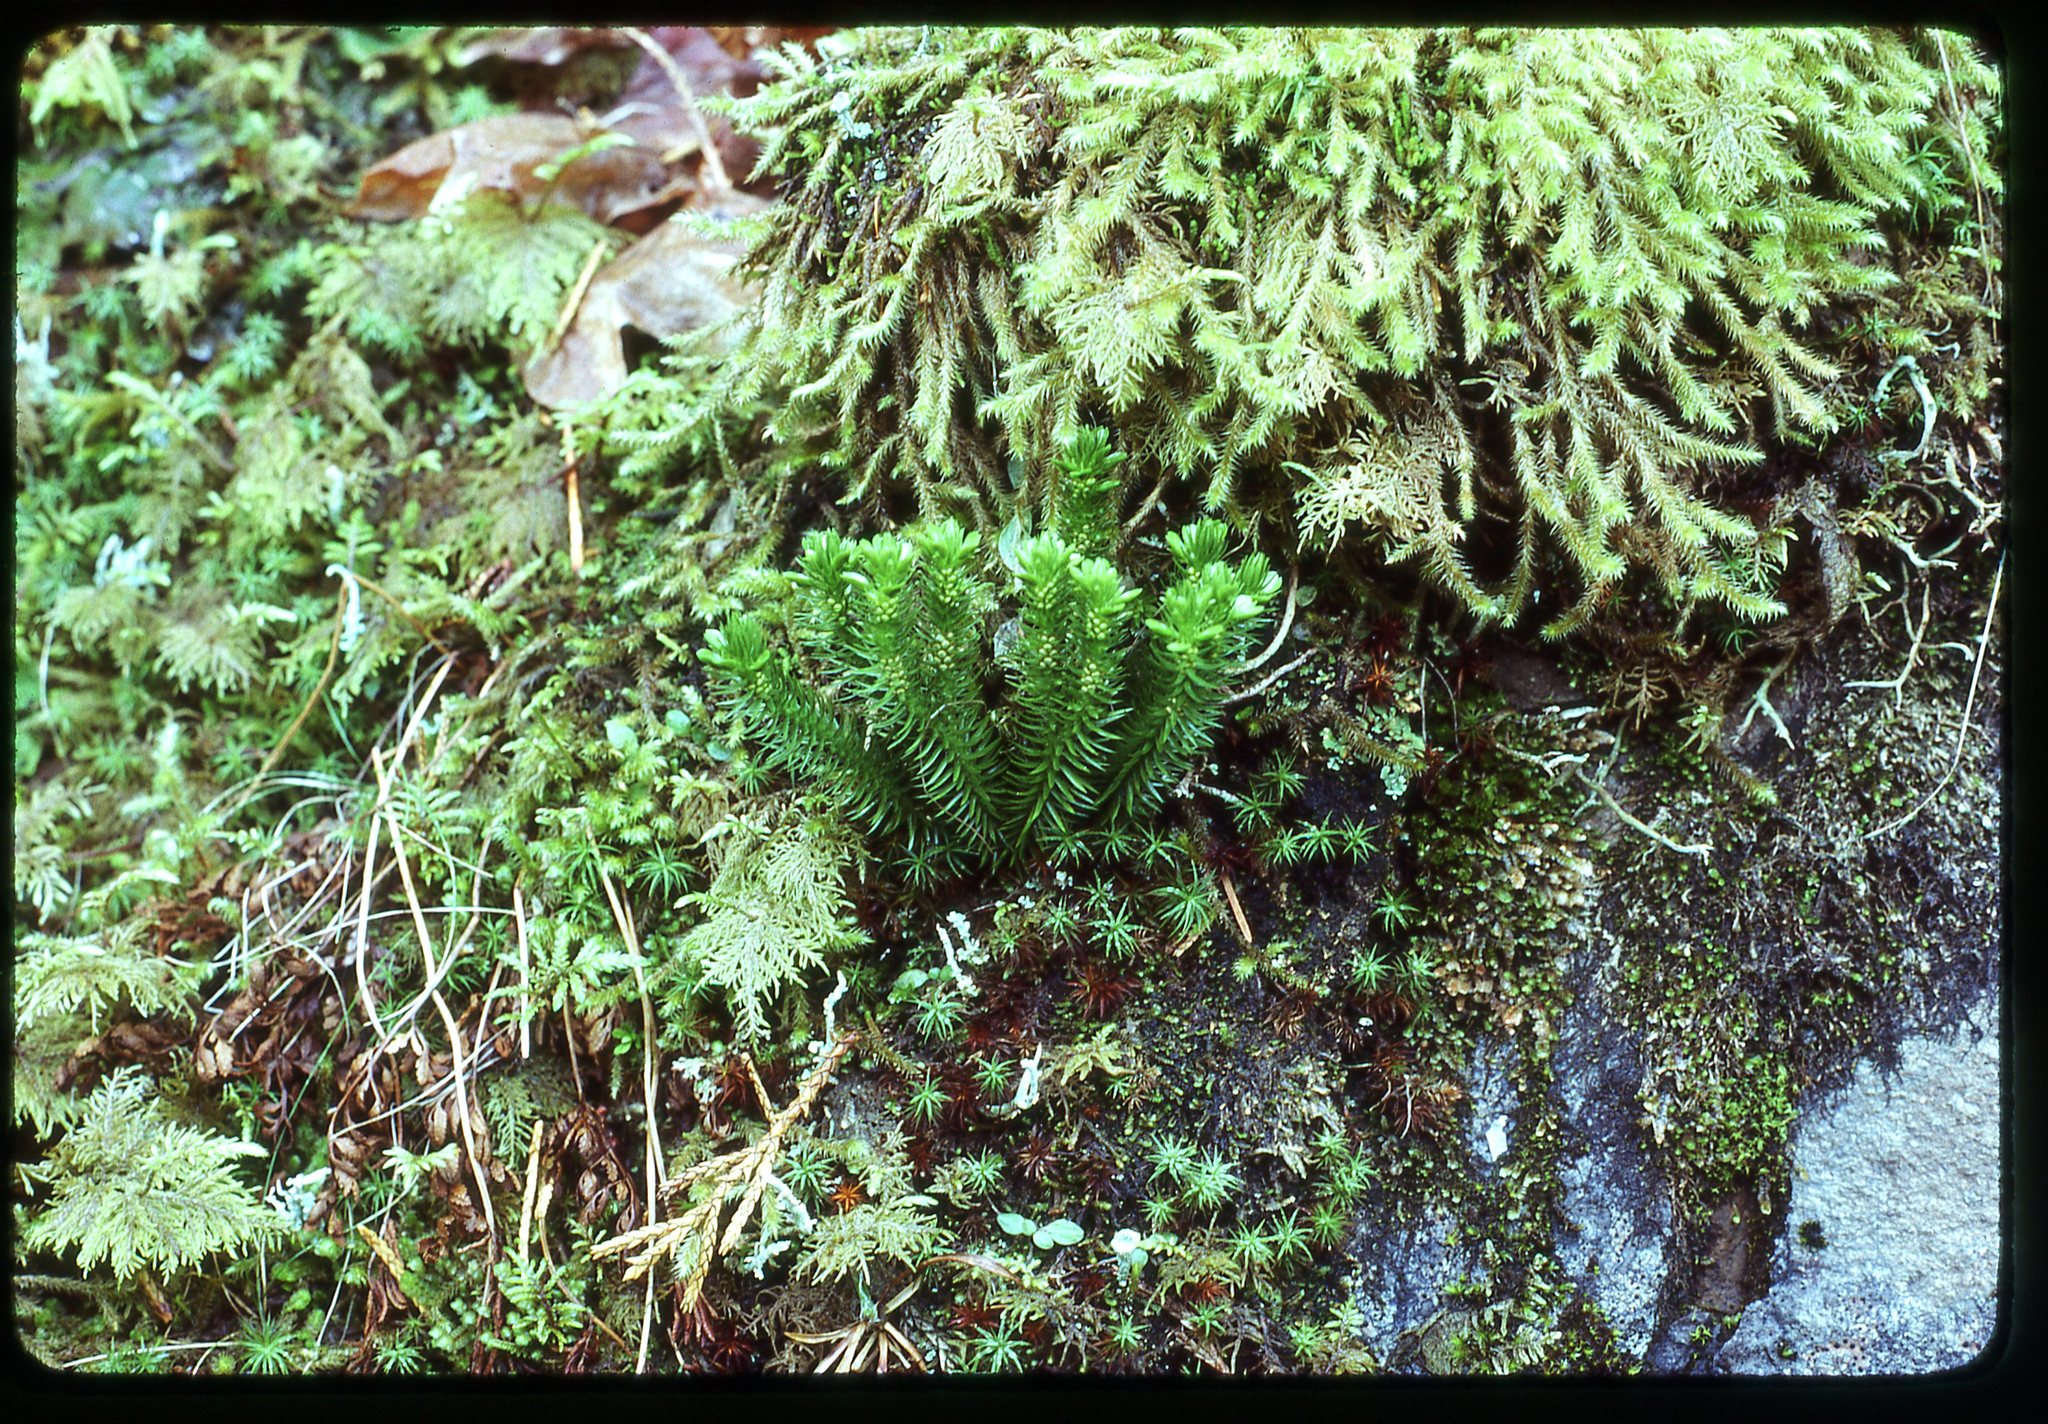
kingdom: Plantae
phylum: Tracheophyta
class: Lycopodiopsida
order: Lycopodiales
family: Lycopodiaceae
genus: Huperzia
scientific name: Huperzia miyoshiana
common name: Chinese clubmoss
